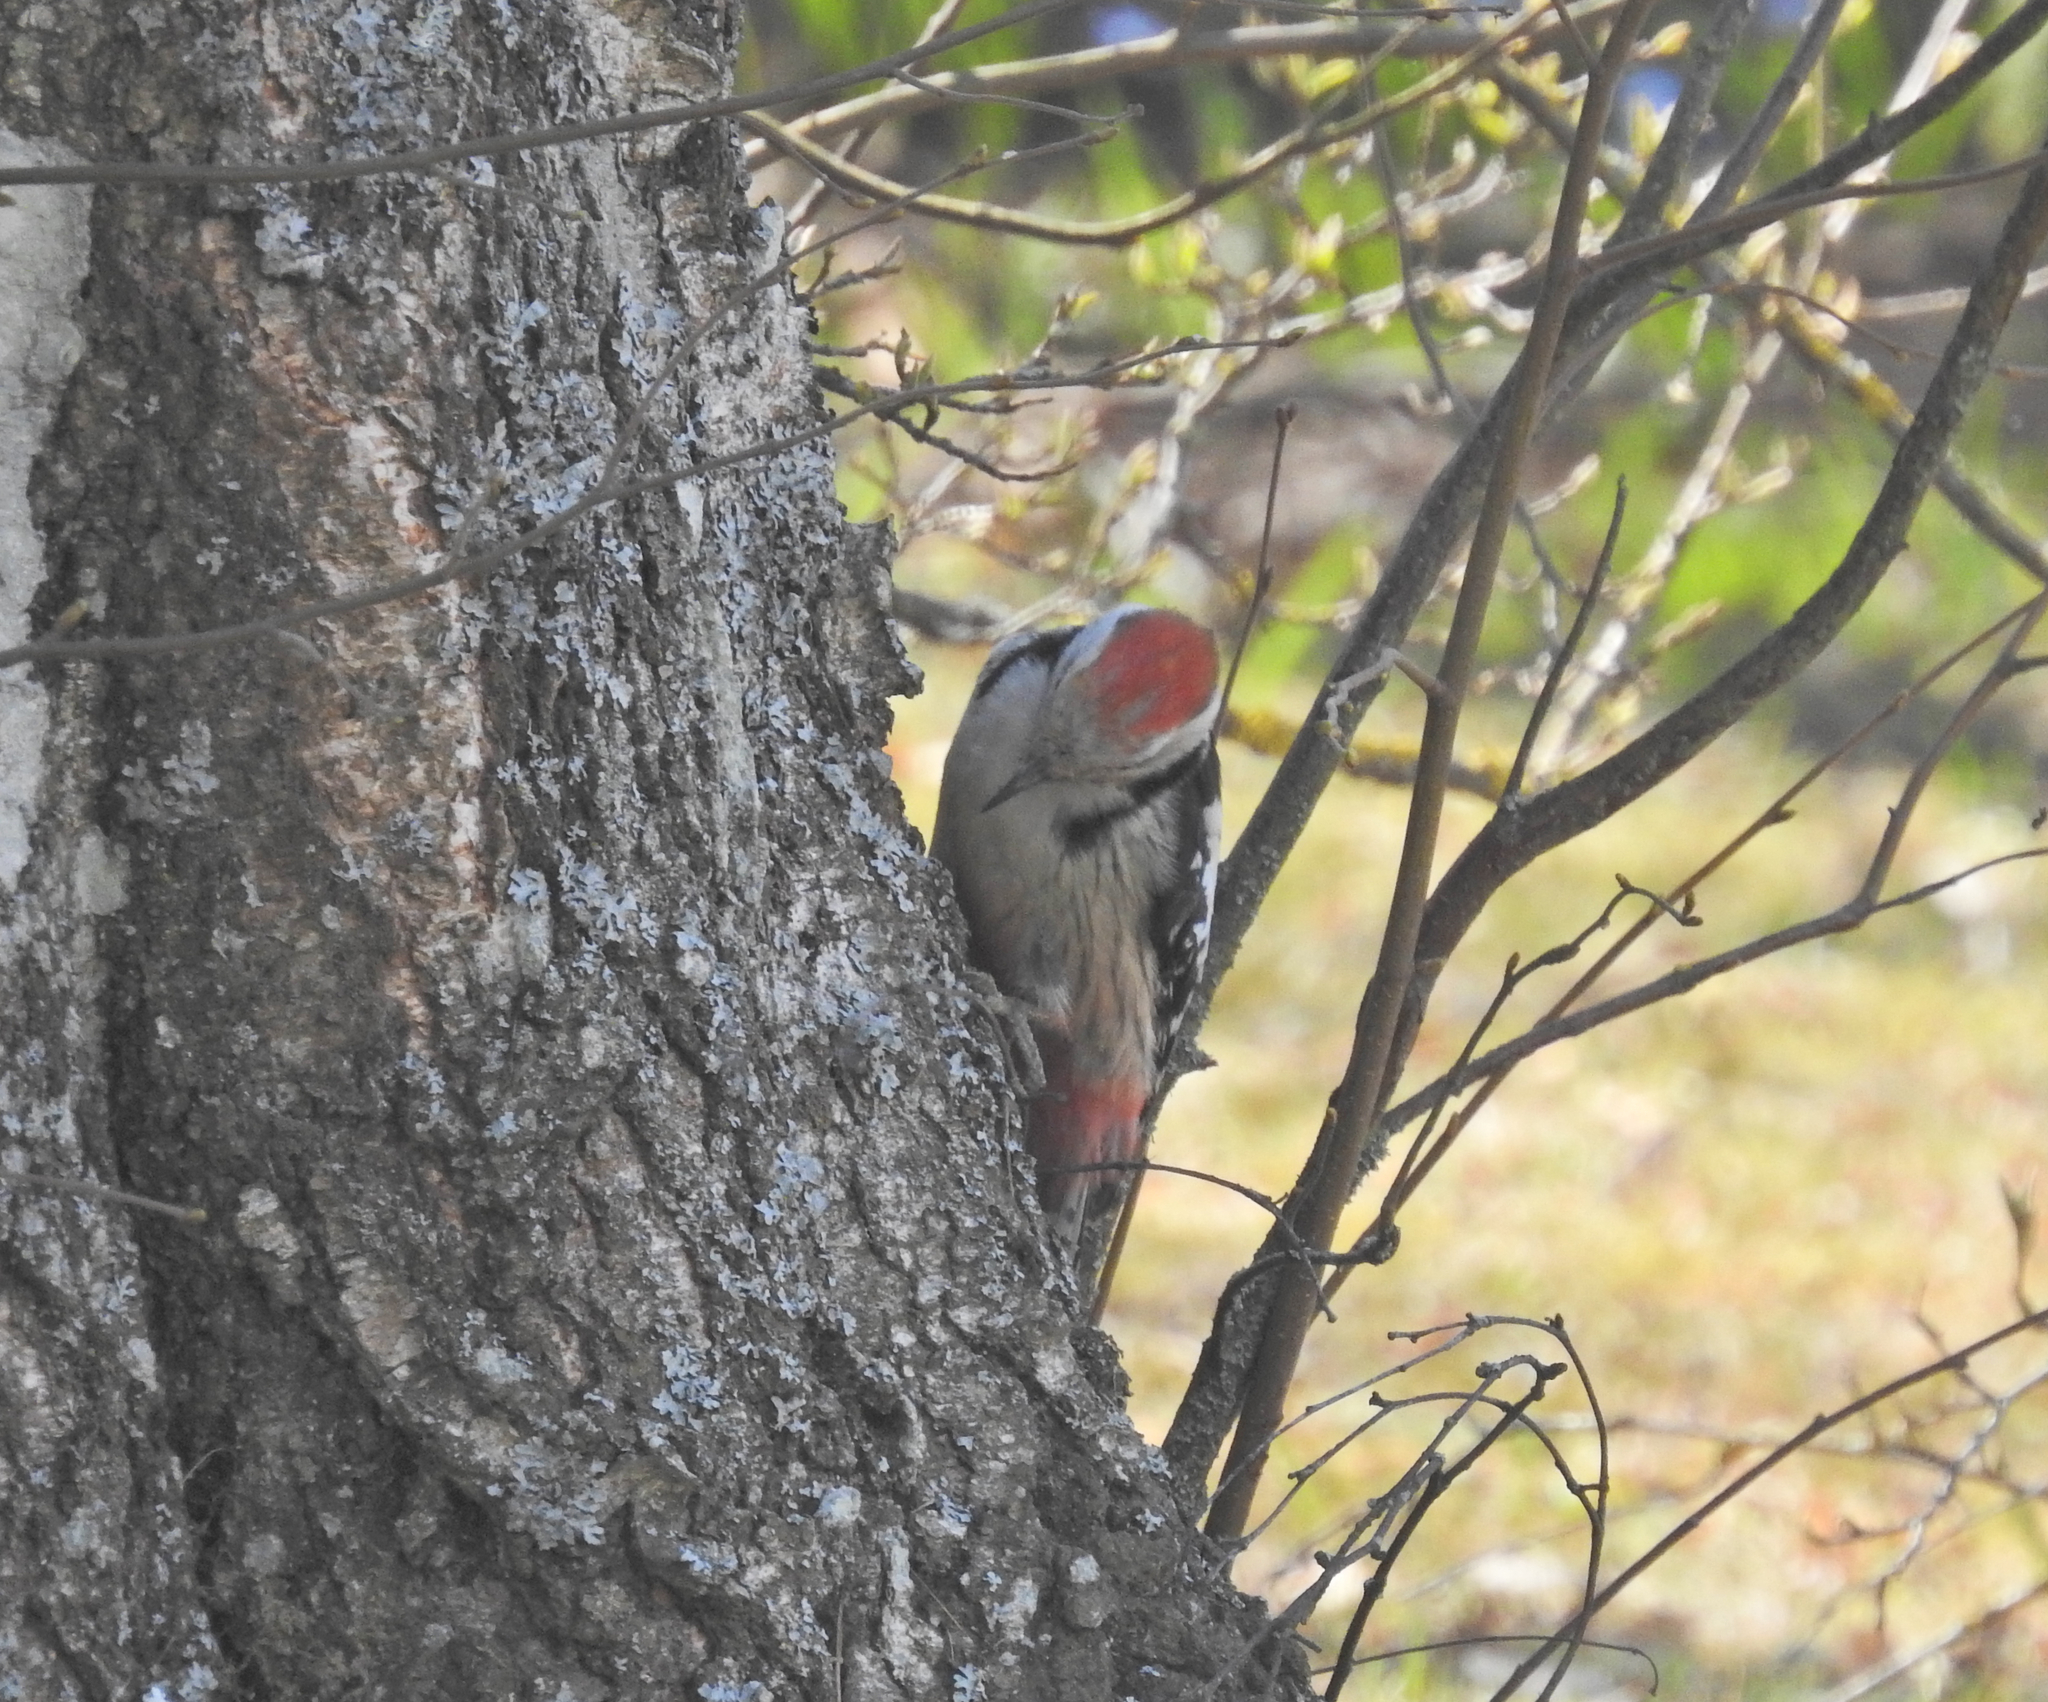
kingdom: Animalia
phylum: Chordata
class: Aves
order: Piciformes
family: Picidae
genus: Dendrocoptes
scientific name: Dendrocoptes medius
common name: Middle spotted woodpecker
